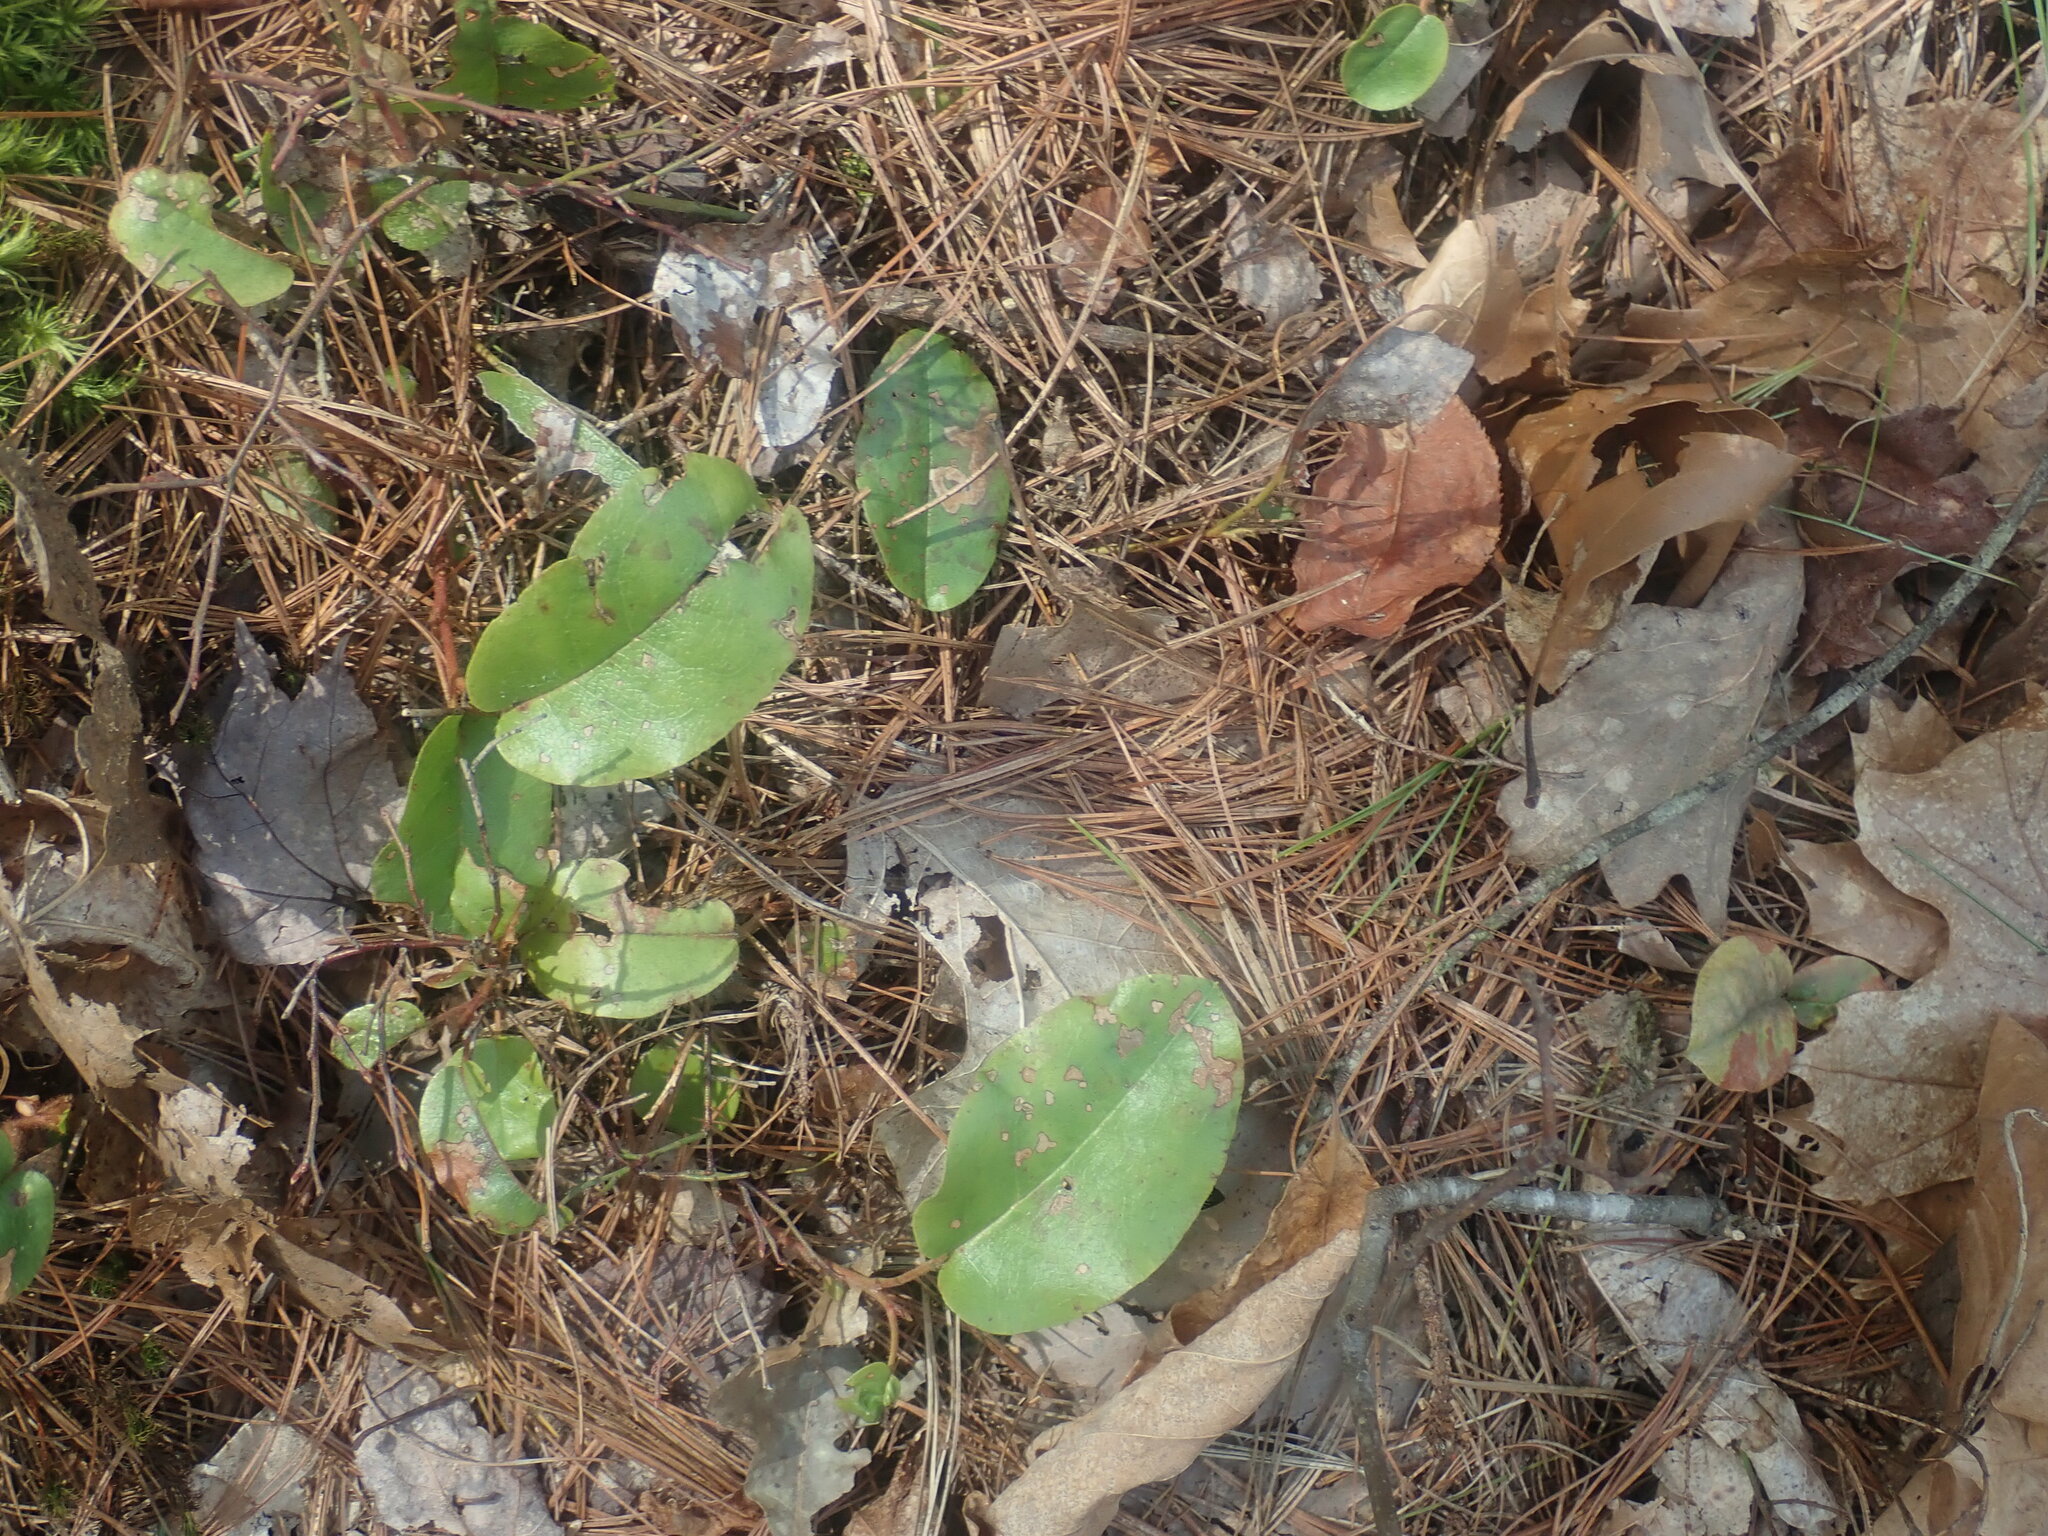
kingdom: Plantae
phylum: Tracheophyta
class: Magnoliopsida
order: Ericales
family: Ericaceae
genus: Epigaea
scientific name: Epigaea repens
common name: Gravelroot
